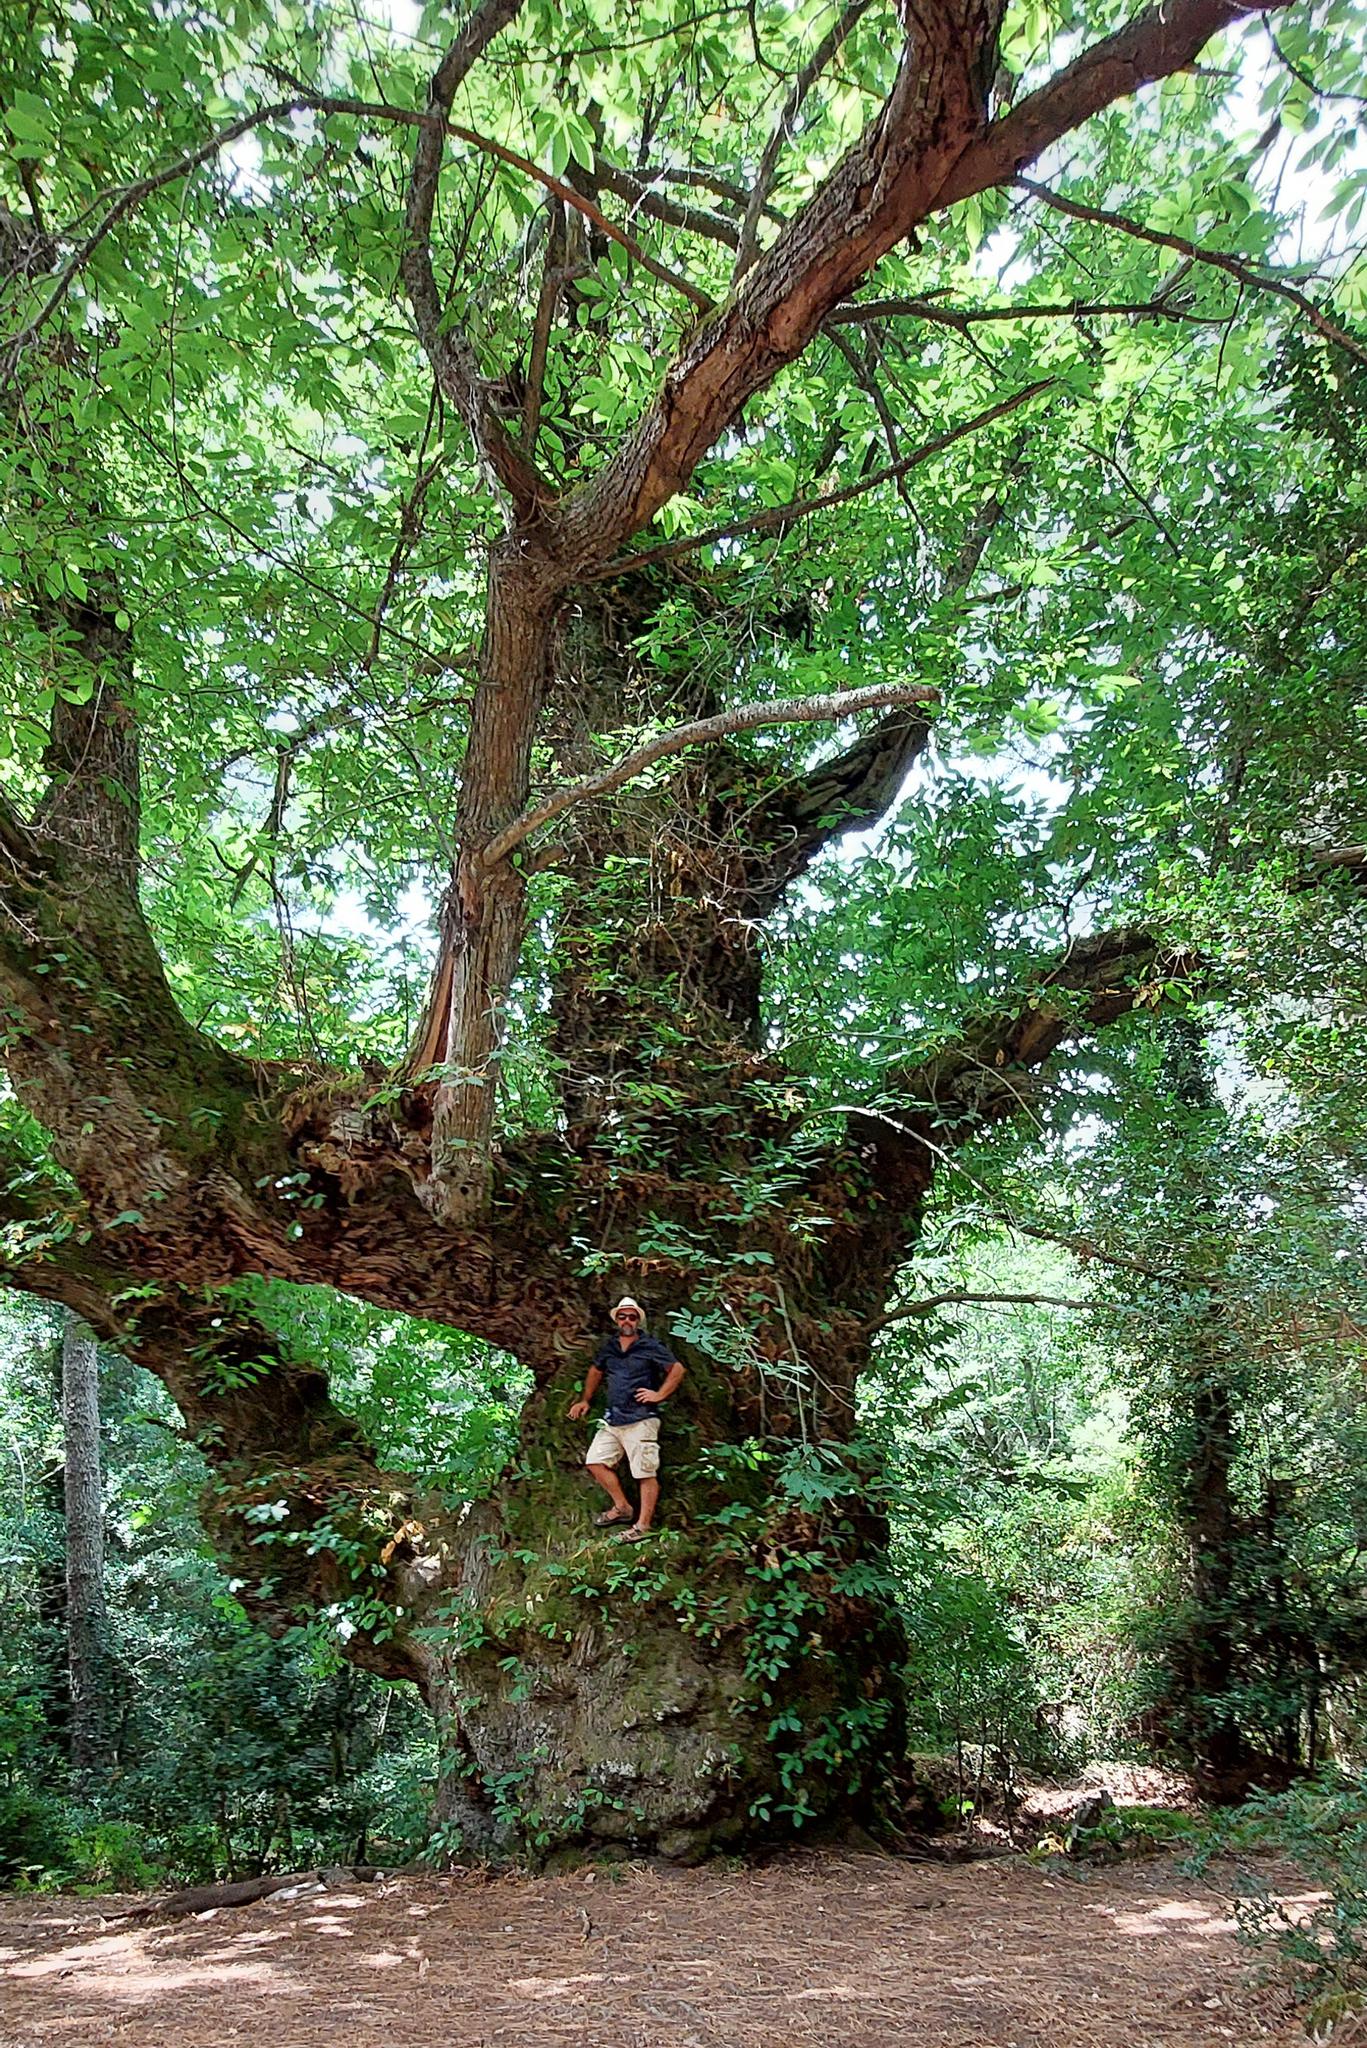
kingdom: Plantae
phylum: Tracheophyta
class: Magnoliopsida
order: Fagales
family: Fagaceae
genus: Castanea
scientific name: Castanea sativa
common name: Sweet chestnut
